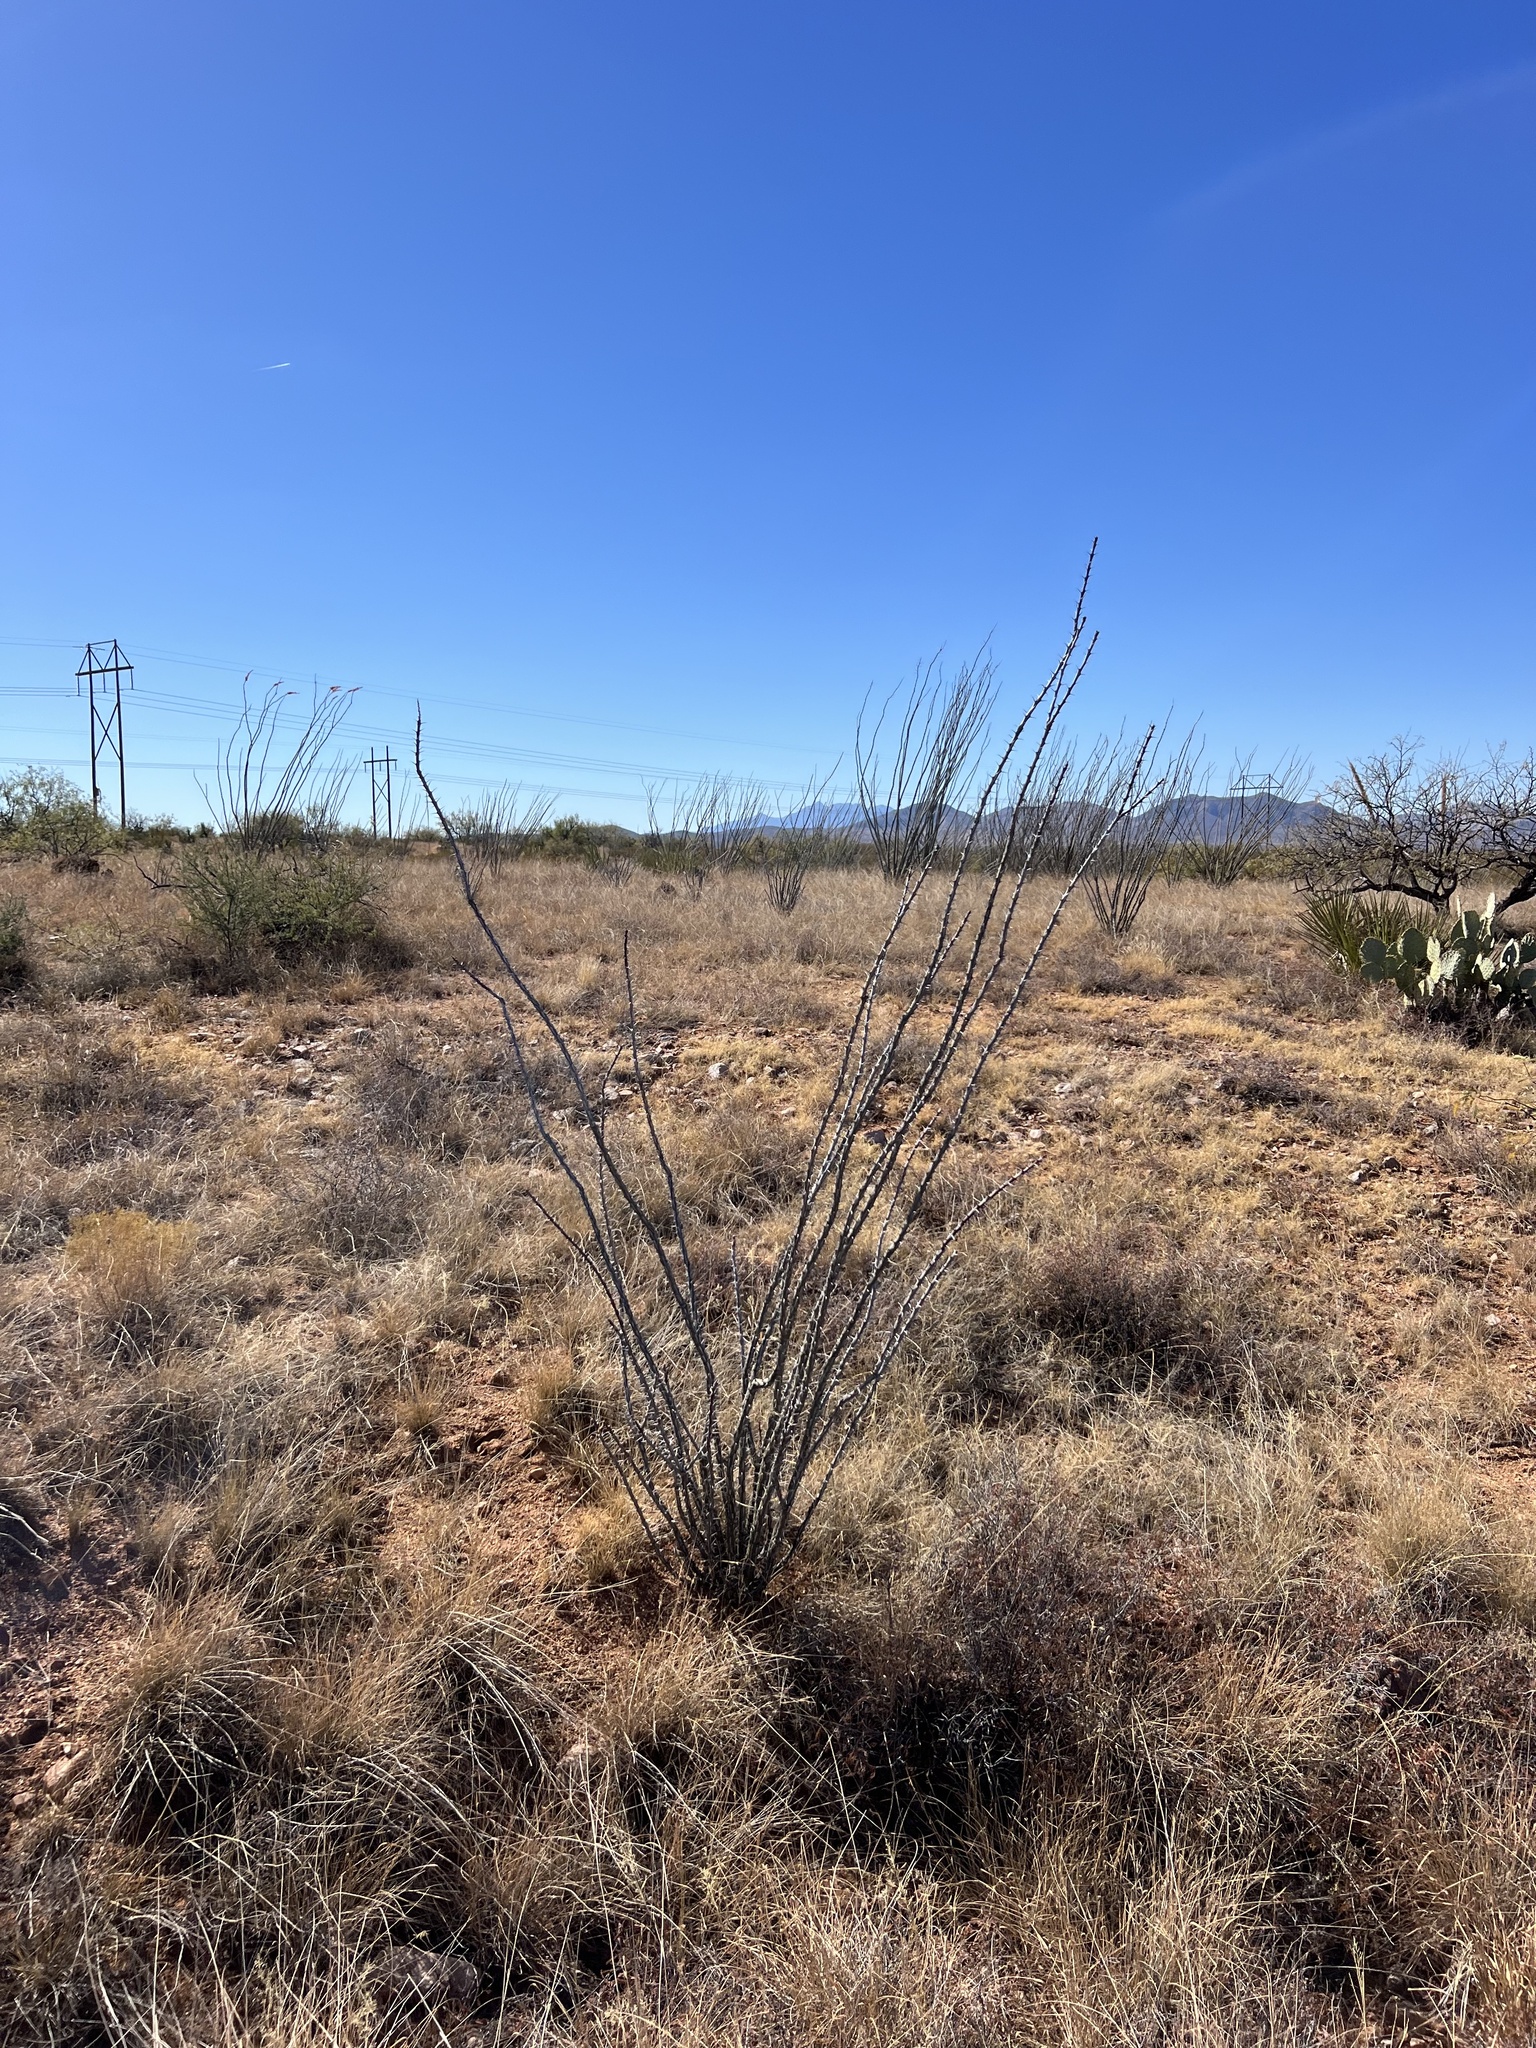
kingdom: Plantae
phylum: Tracheophyta
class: Magnoliopsida
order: Ericales
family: Fouquieriaceae
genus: Fouquieria
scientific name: Fouquieria splendens
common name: Vine-cactus
